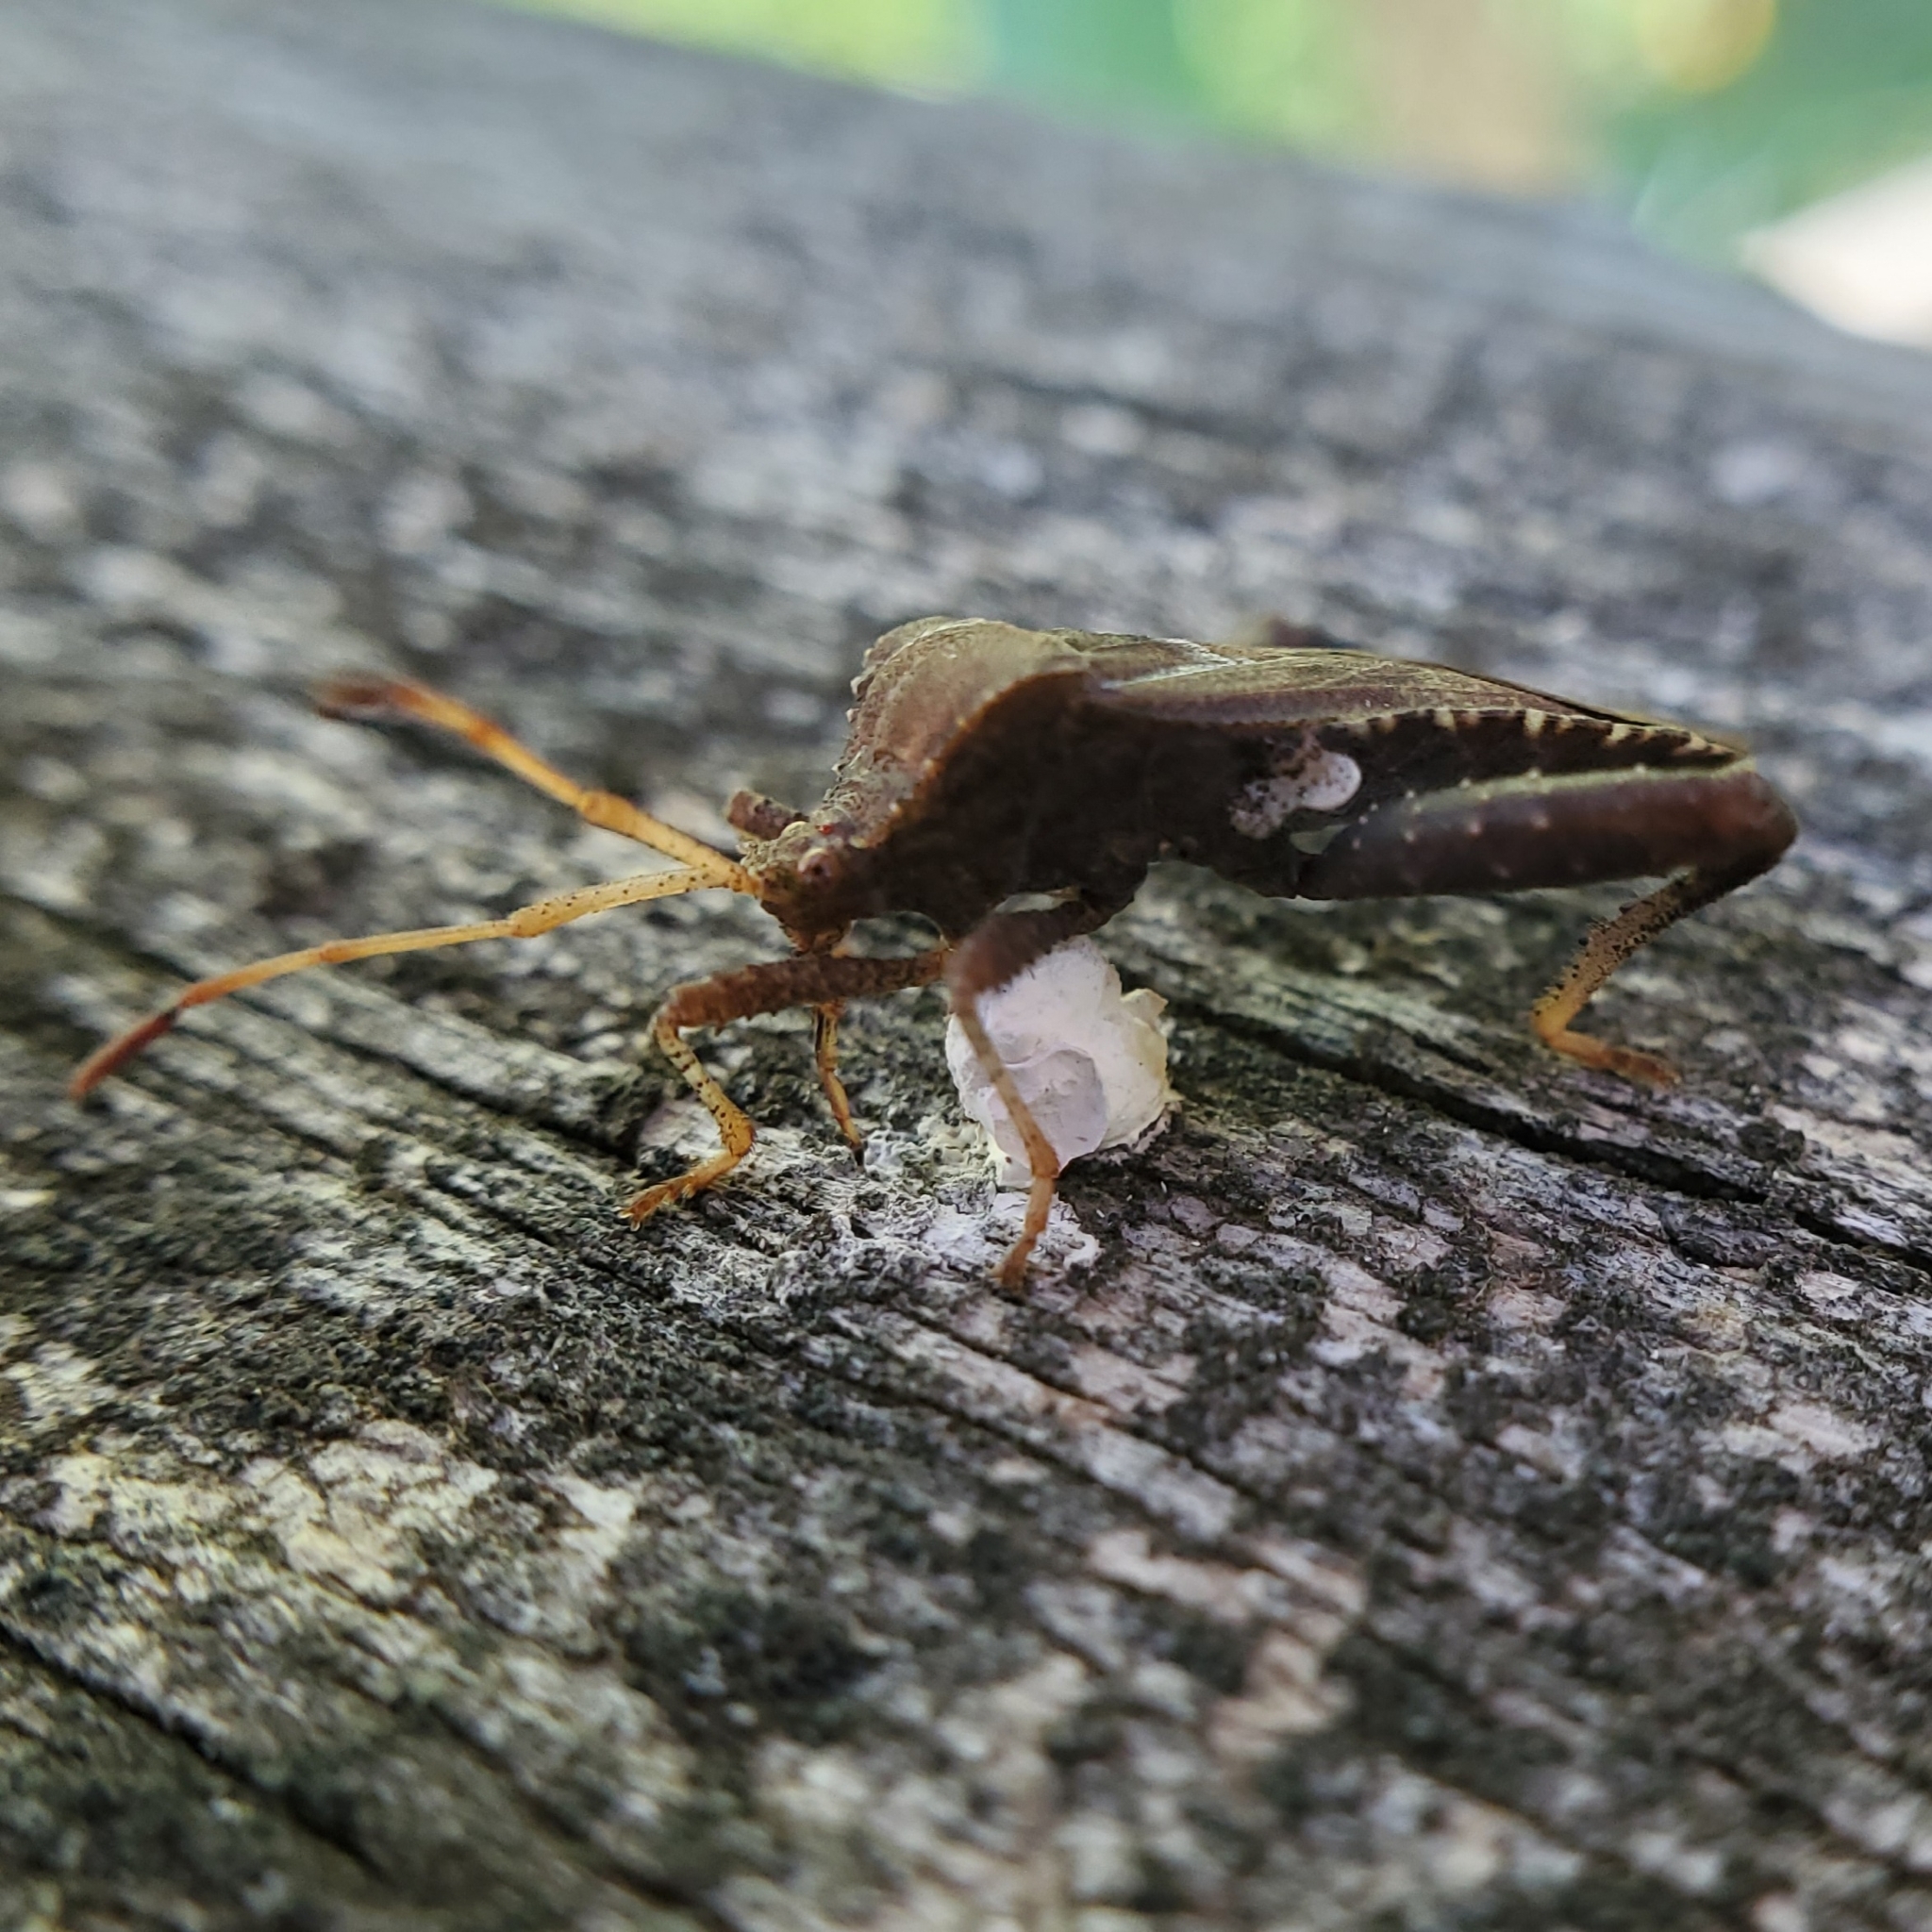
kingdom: Animalia
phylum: Arthropoda
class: Insecta
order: Hemiptera
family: Coreidae
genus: Euthochtha
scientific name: Euthochtha galeator
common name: Helmeted squash bug
